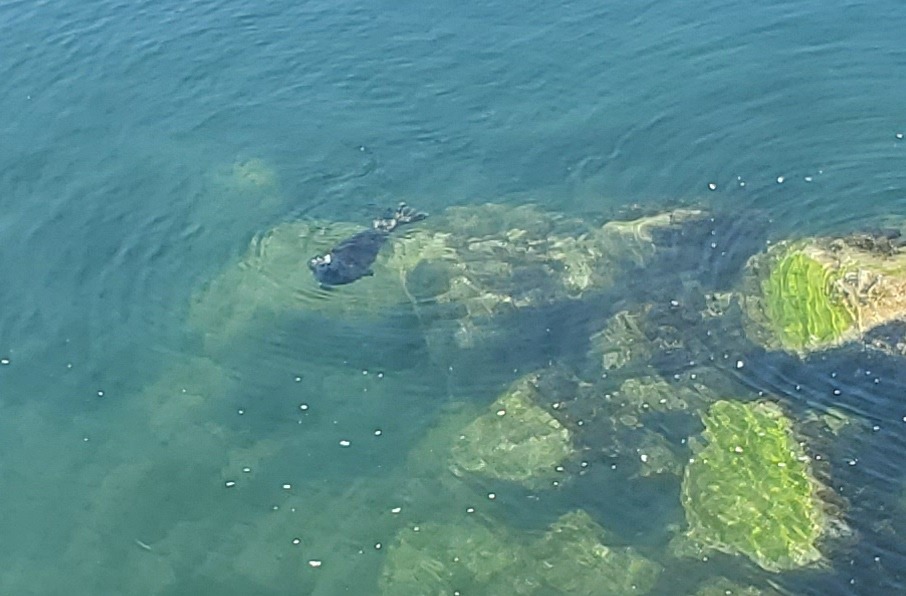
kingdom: Animalia
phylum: Chordata
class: Mammalia
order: Carnivora
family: Phocidae
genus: Phoca
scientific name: Phoca vitulina
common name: Harbor seal
